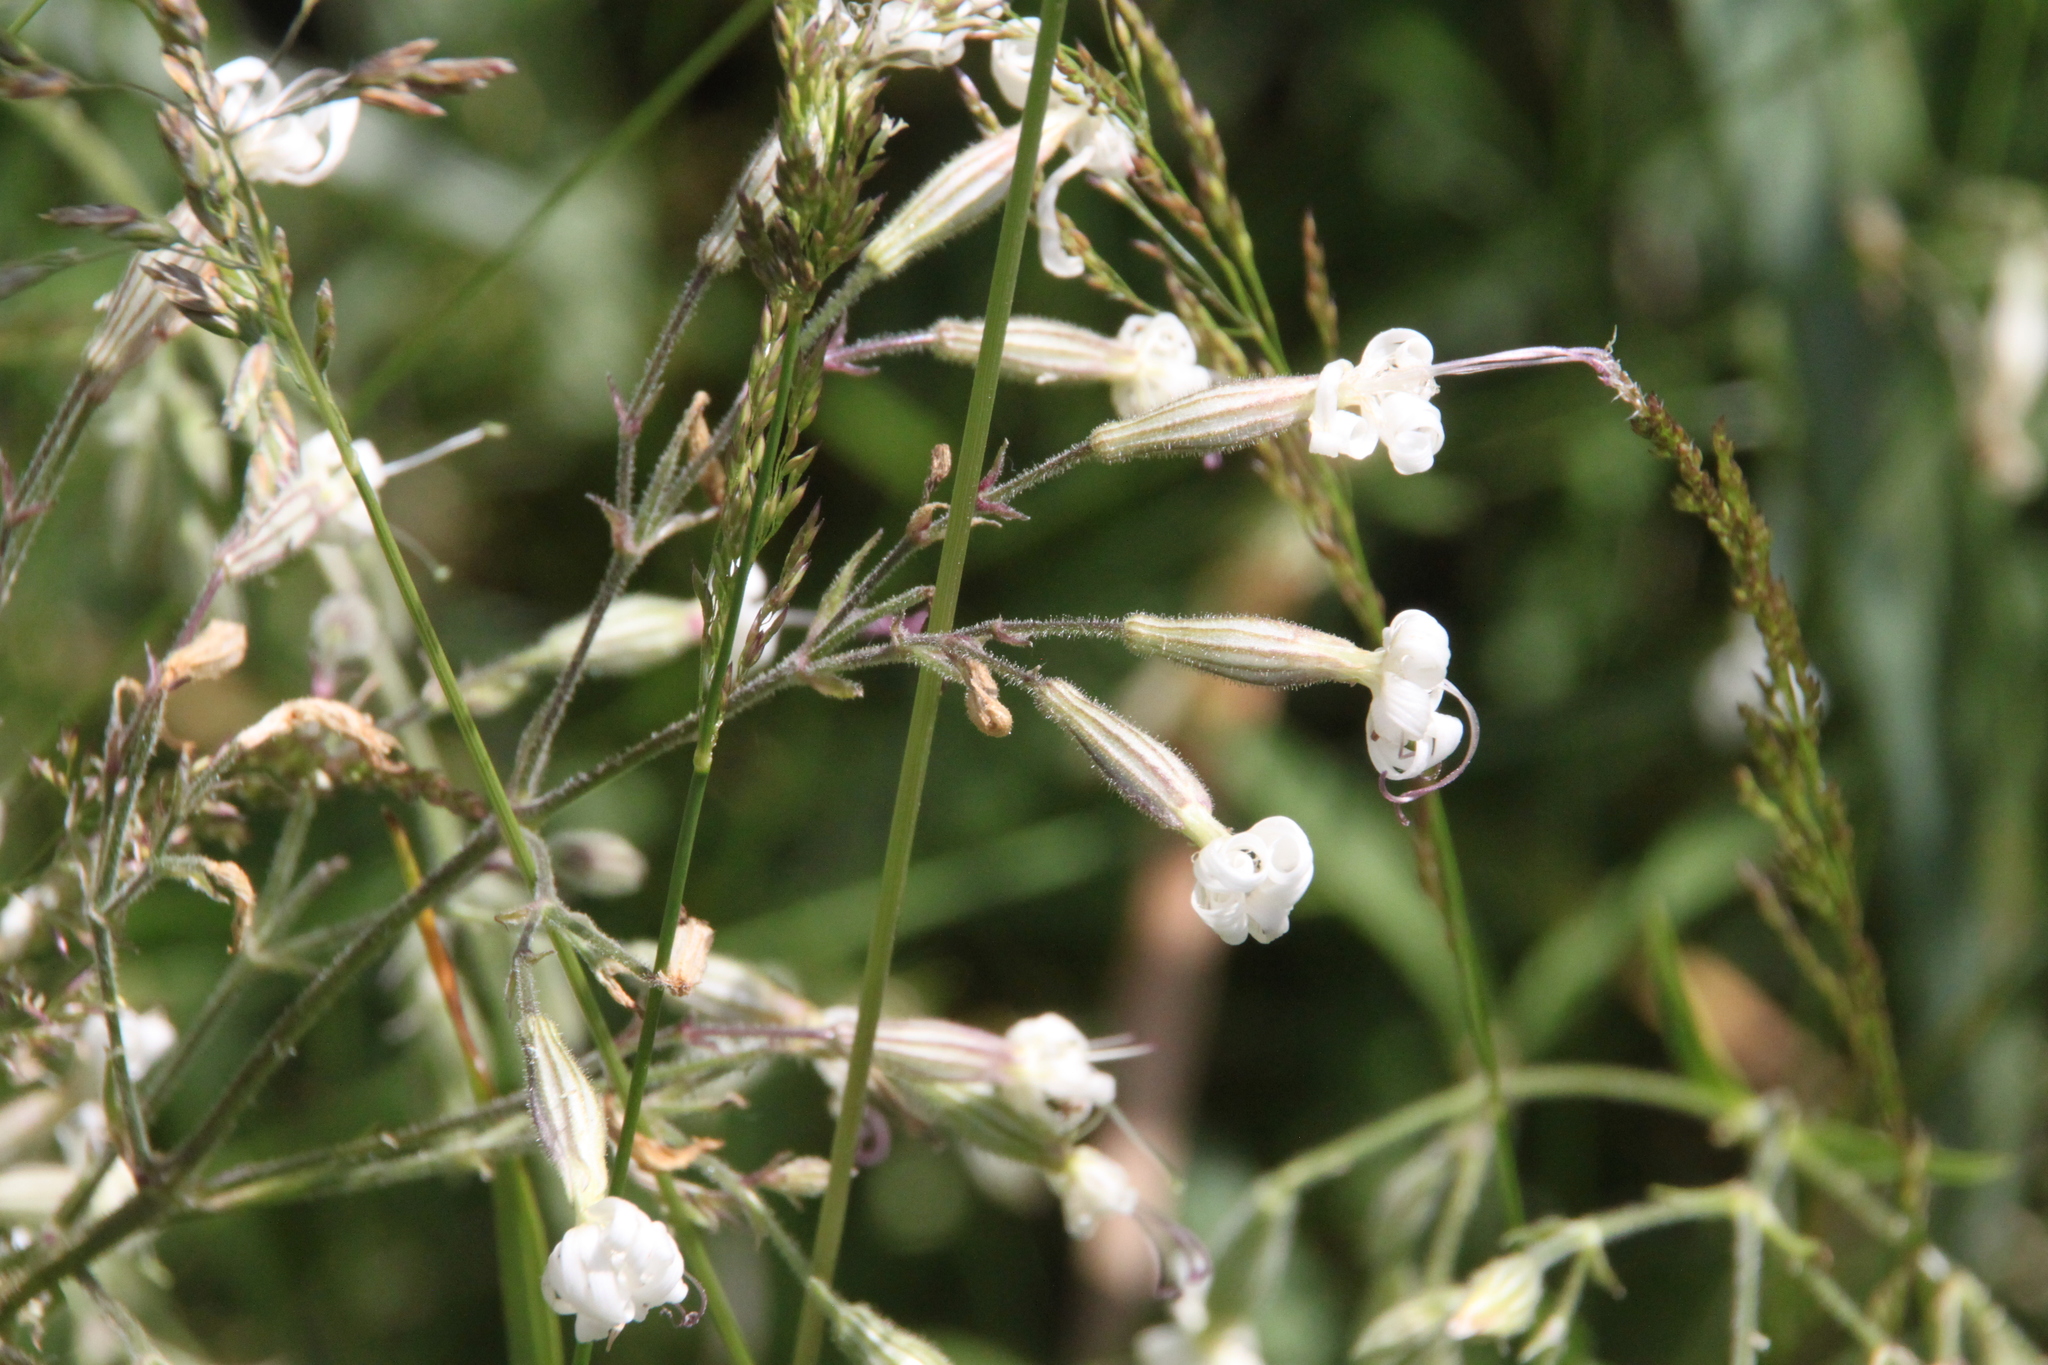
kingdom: Plantae
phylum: Tracheophyta
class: Magnoliopsida
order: Caryophyllales
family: Caryophyllaceae
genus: Silene
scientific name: Silene nutans
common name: Nottingham catchfly
